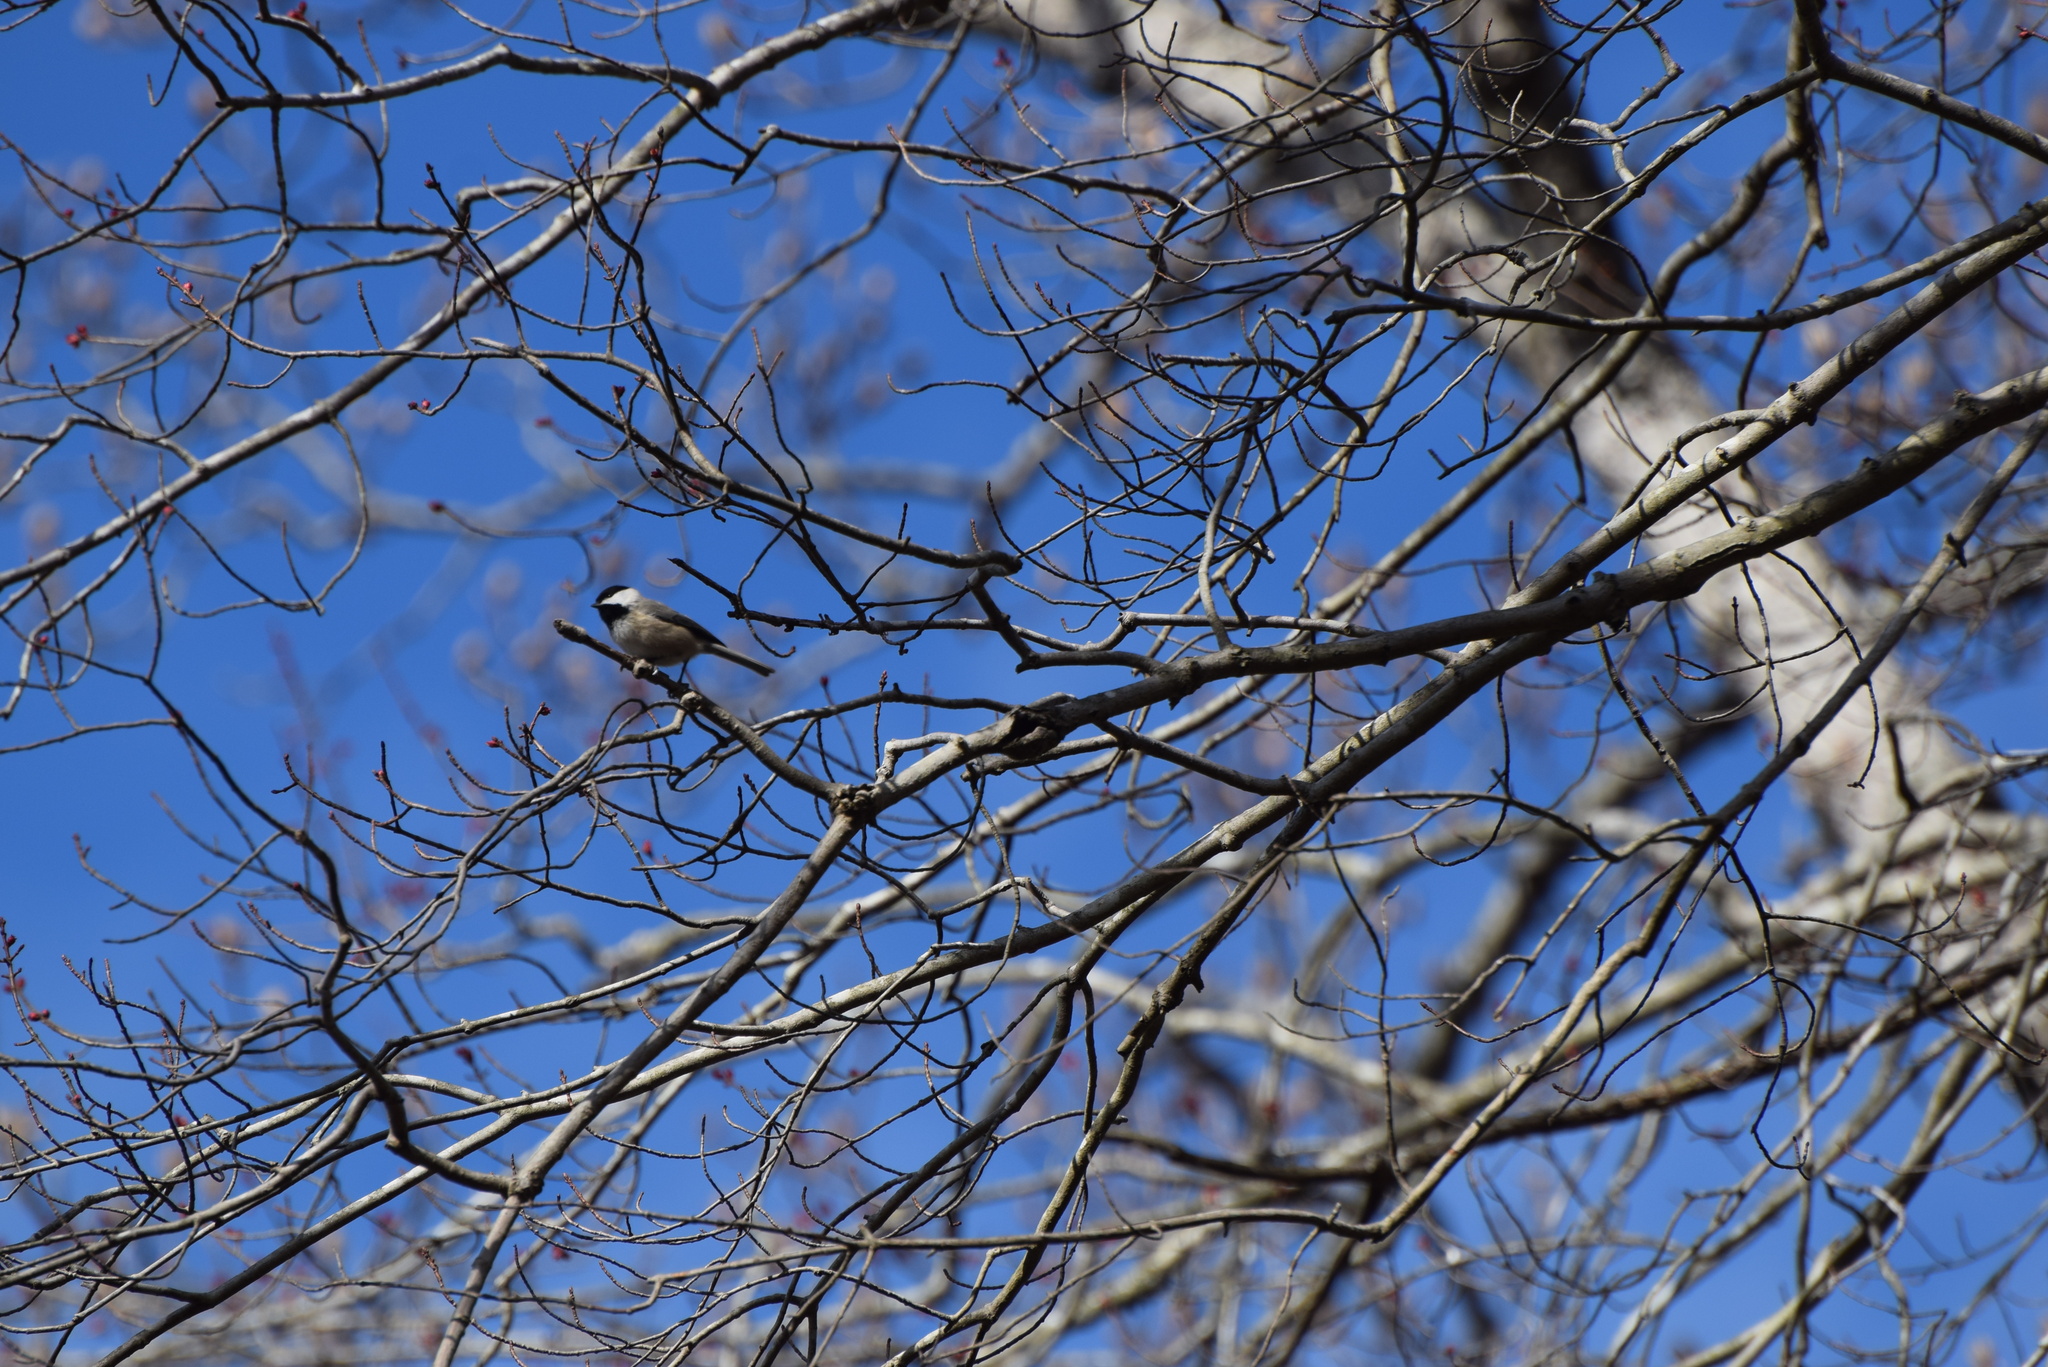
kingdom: Animalia
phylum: Chordata
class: Aves
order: Passeriformes
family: Paridae
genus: Poecile
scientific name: Poecile carolinensis
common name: Carolina chickadee
